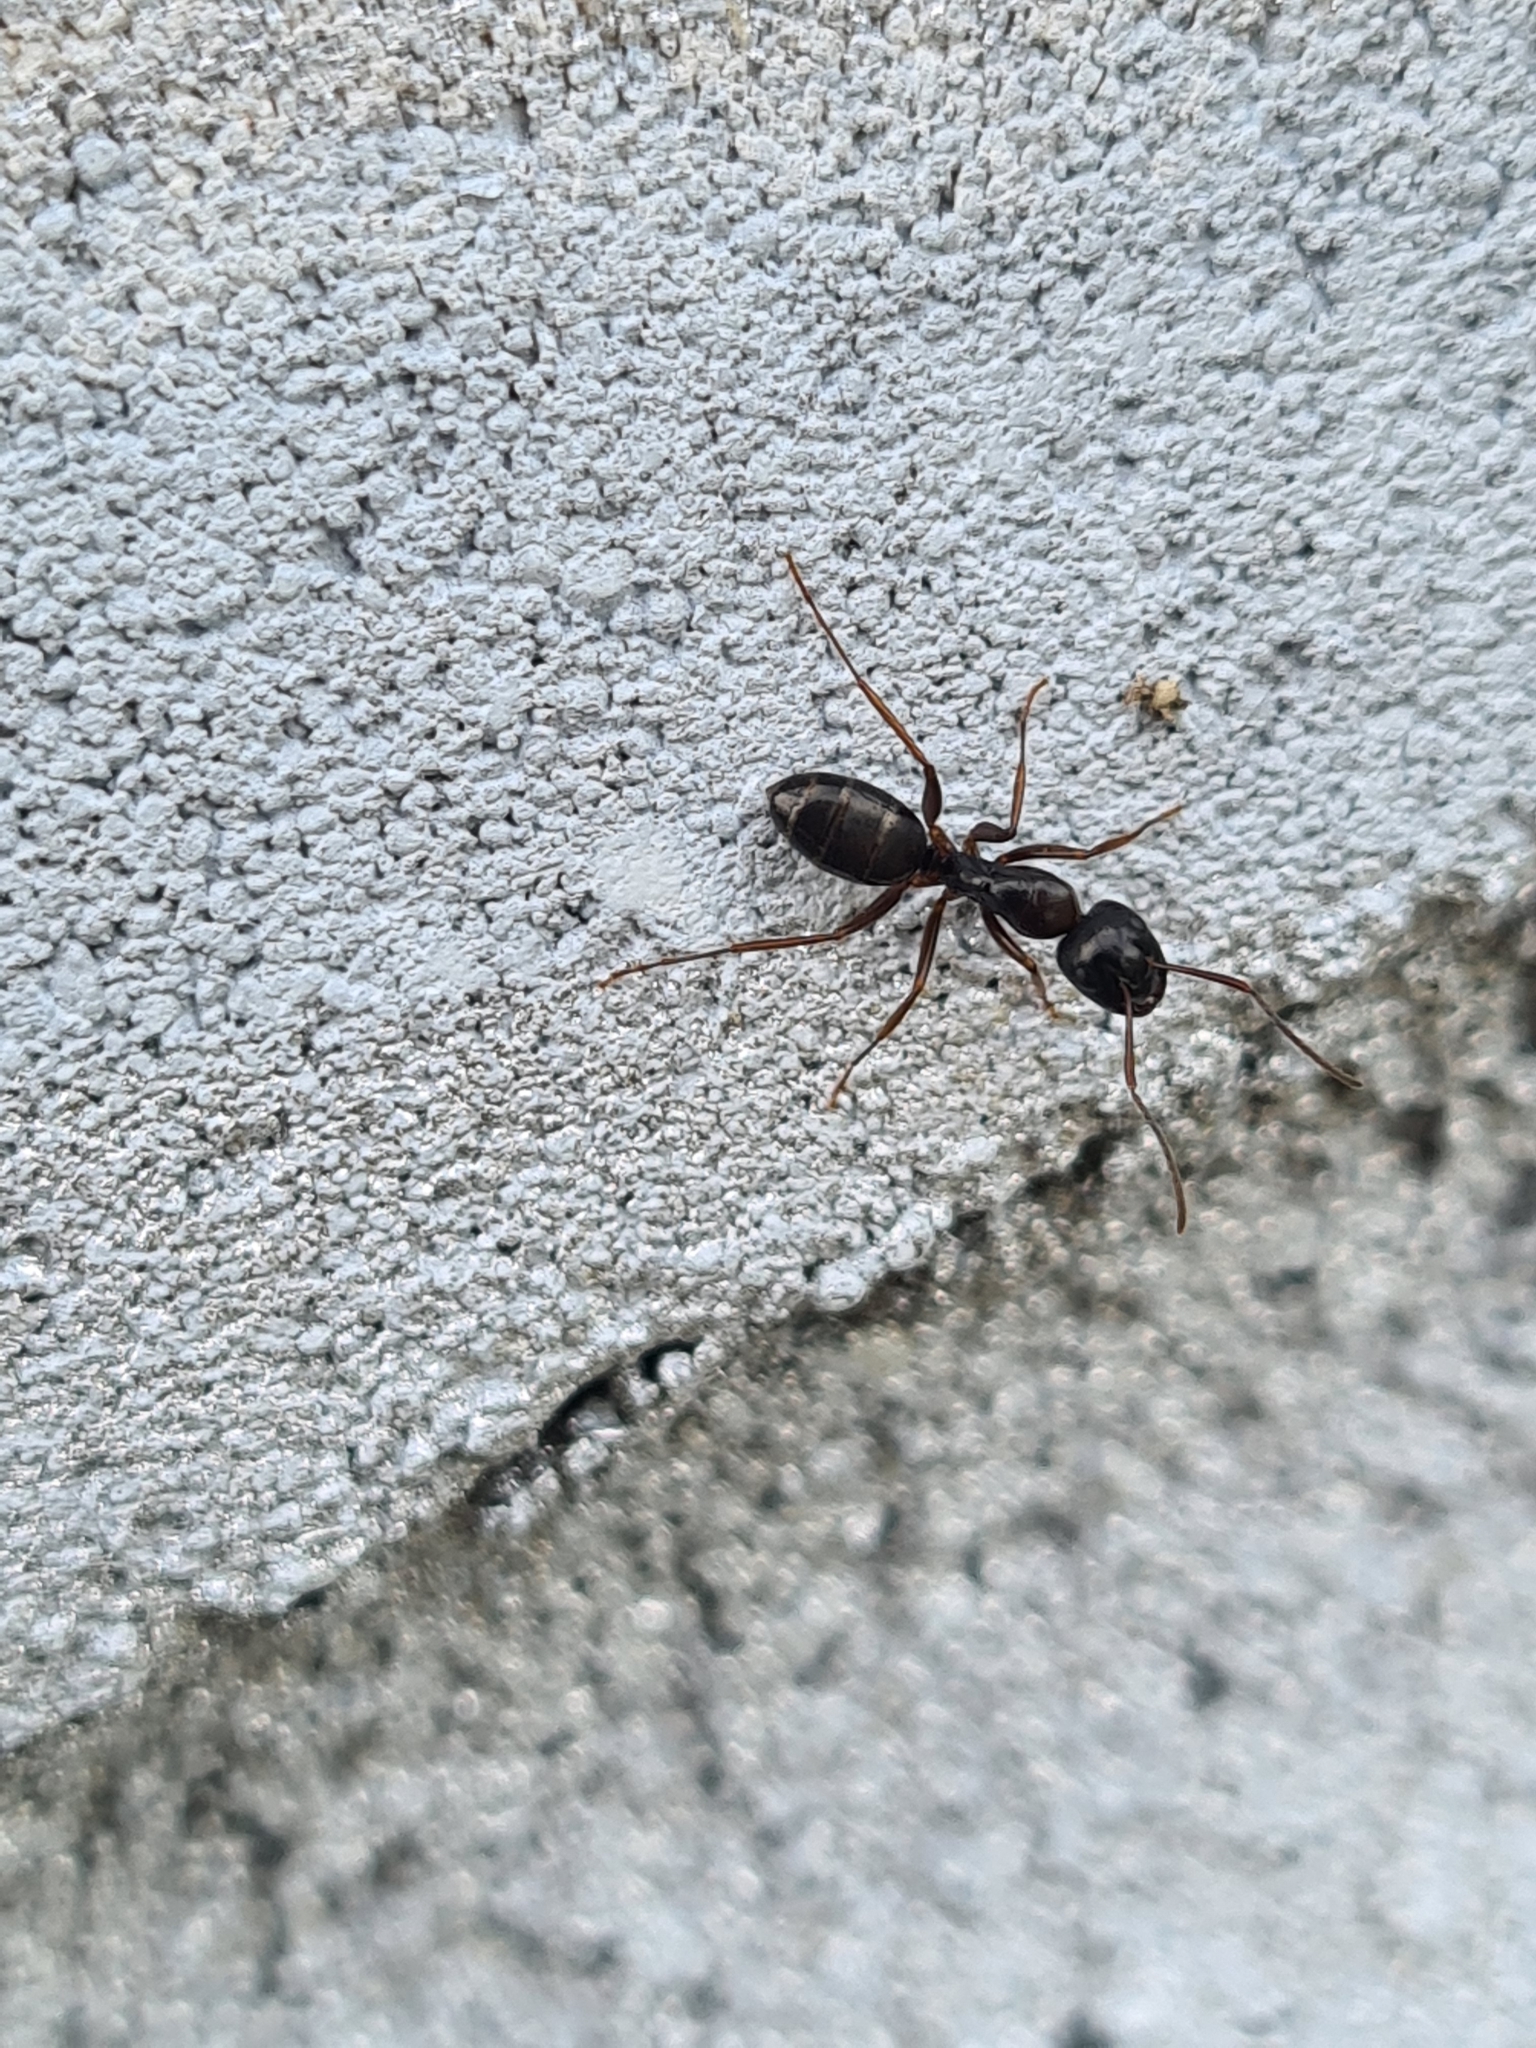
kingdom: Animalia
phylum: Arthropoda
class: Insecta
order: Hymenoptera
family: Formicidae
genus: Camponotus
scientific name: Camponotus fallax
